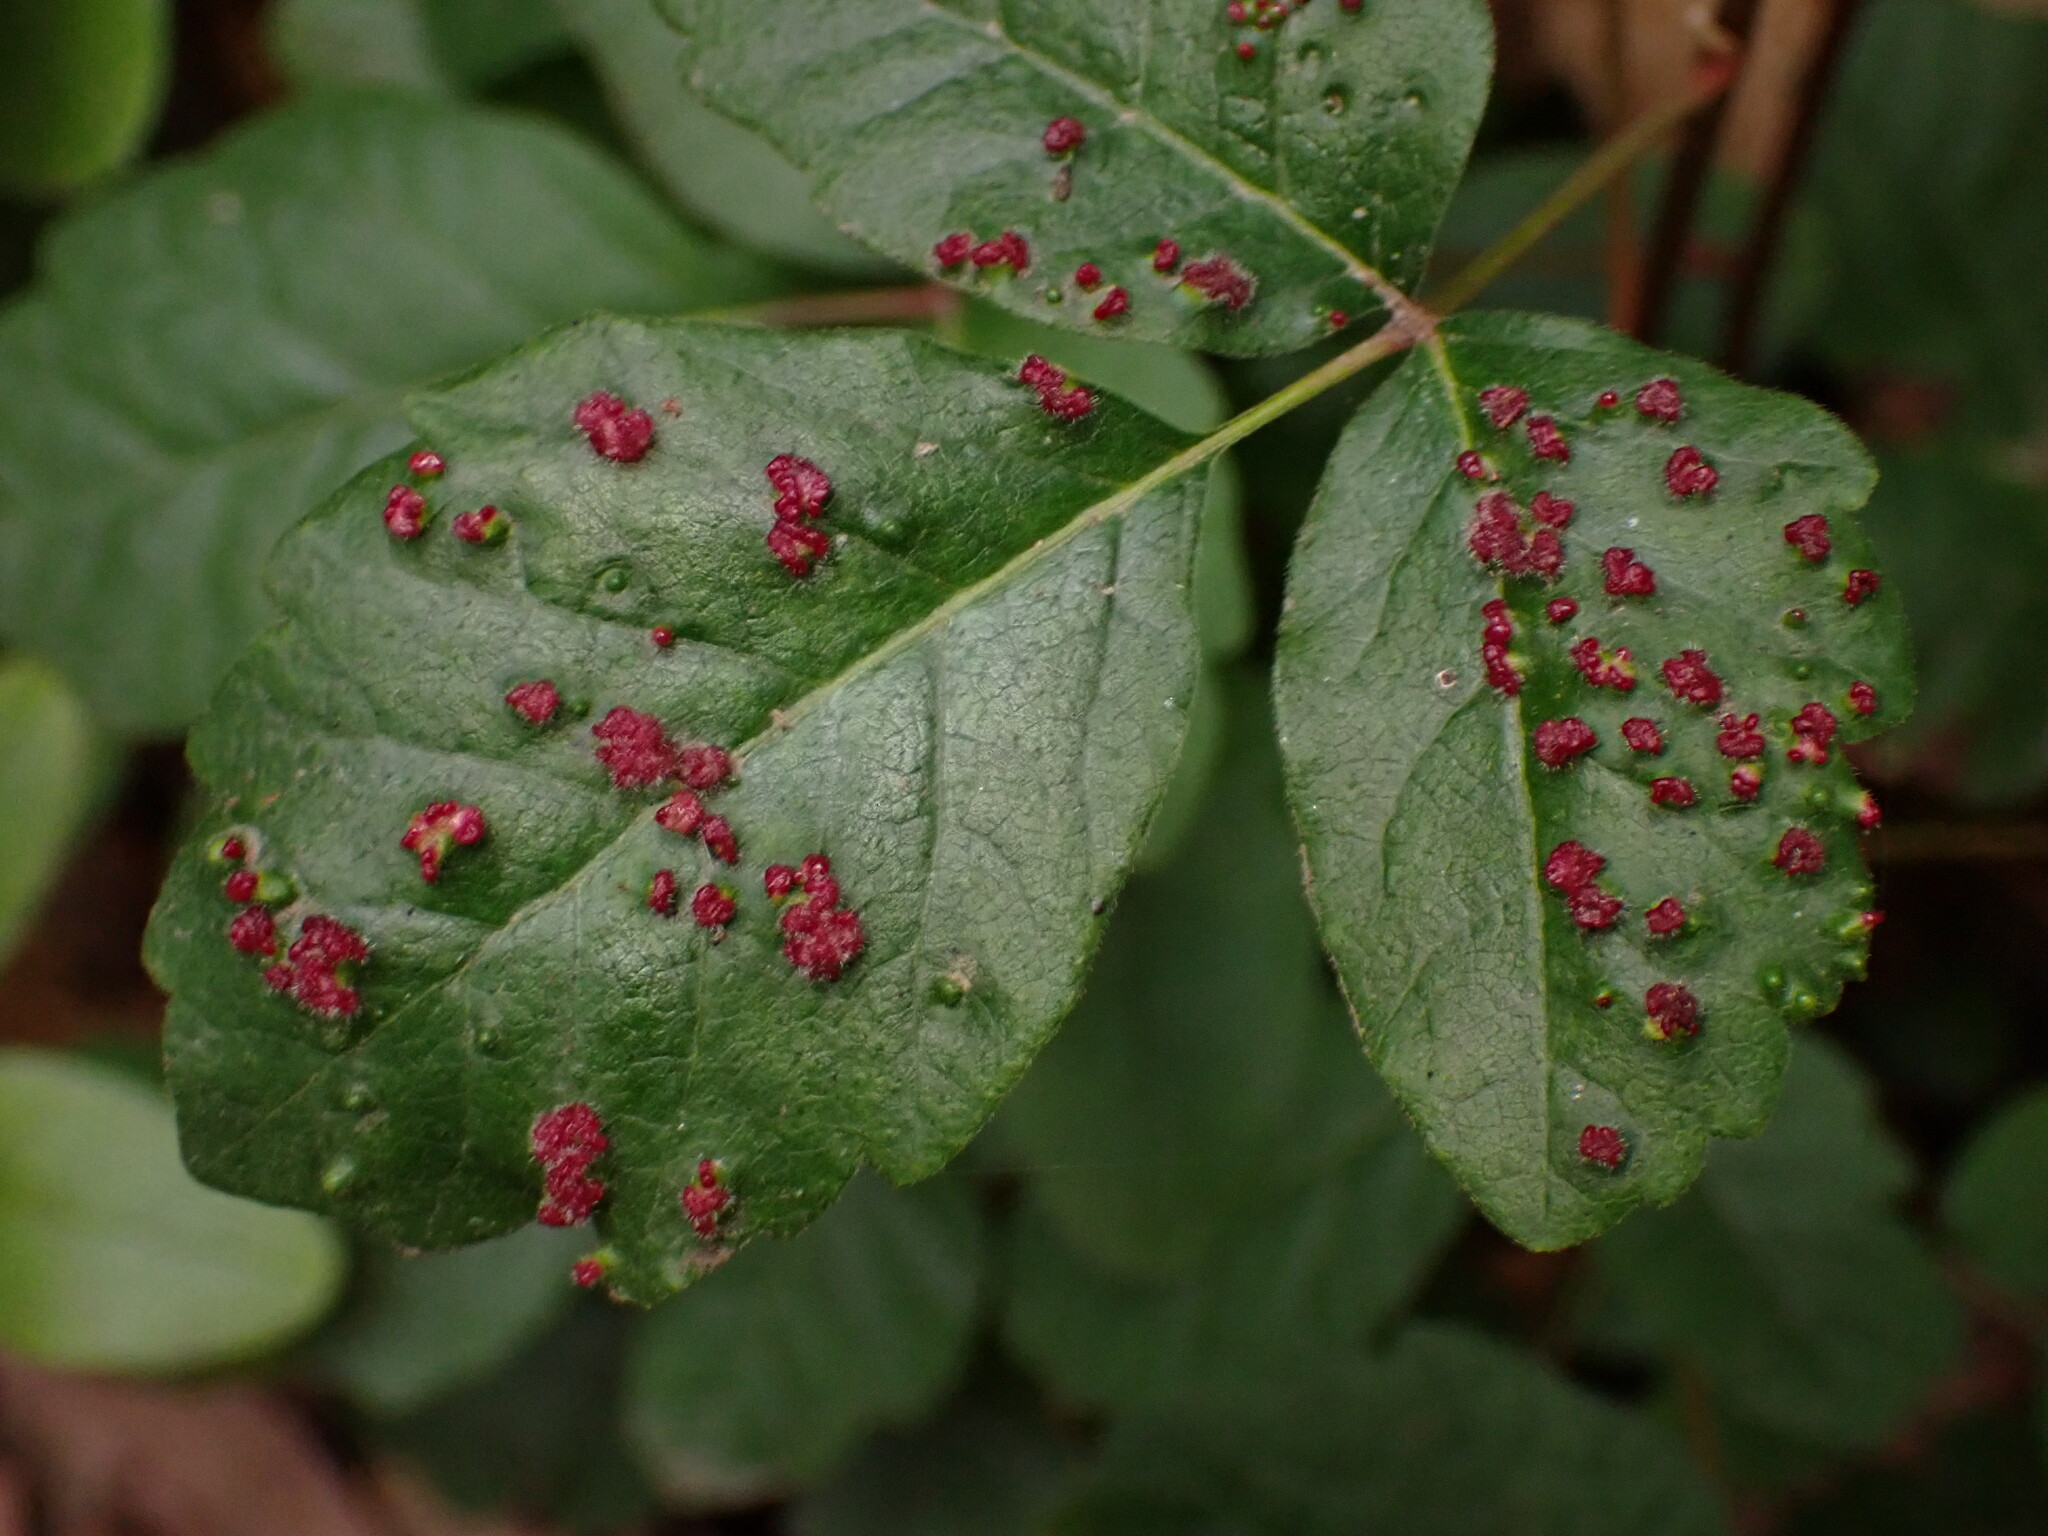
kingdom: Animalia
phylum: Arthropoda
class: Arachnida
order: Trombidiformes
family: Eriophyidae
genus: Aculops
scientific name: Aculops
